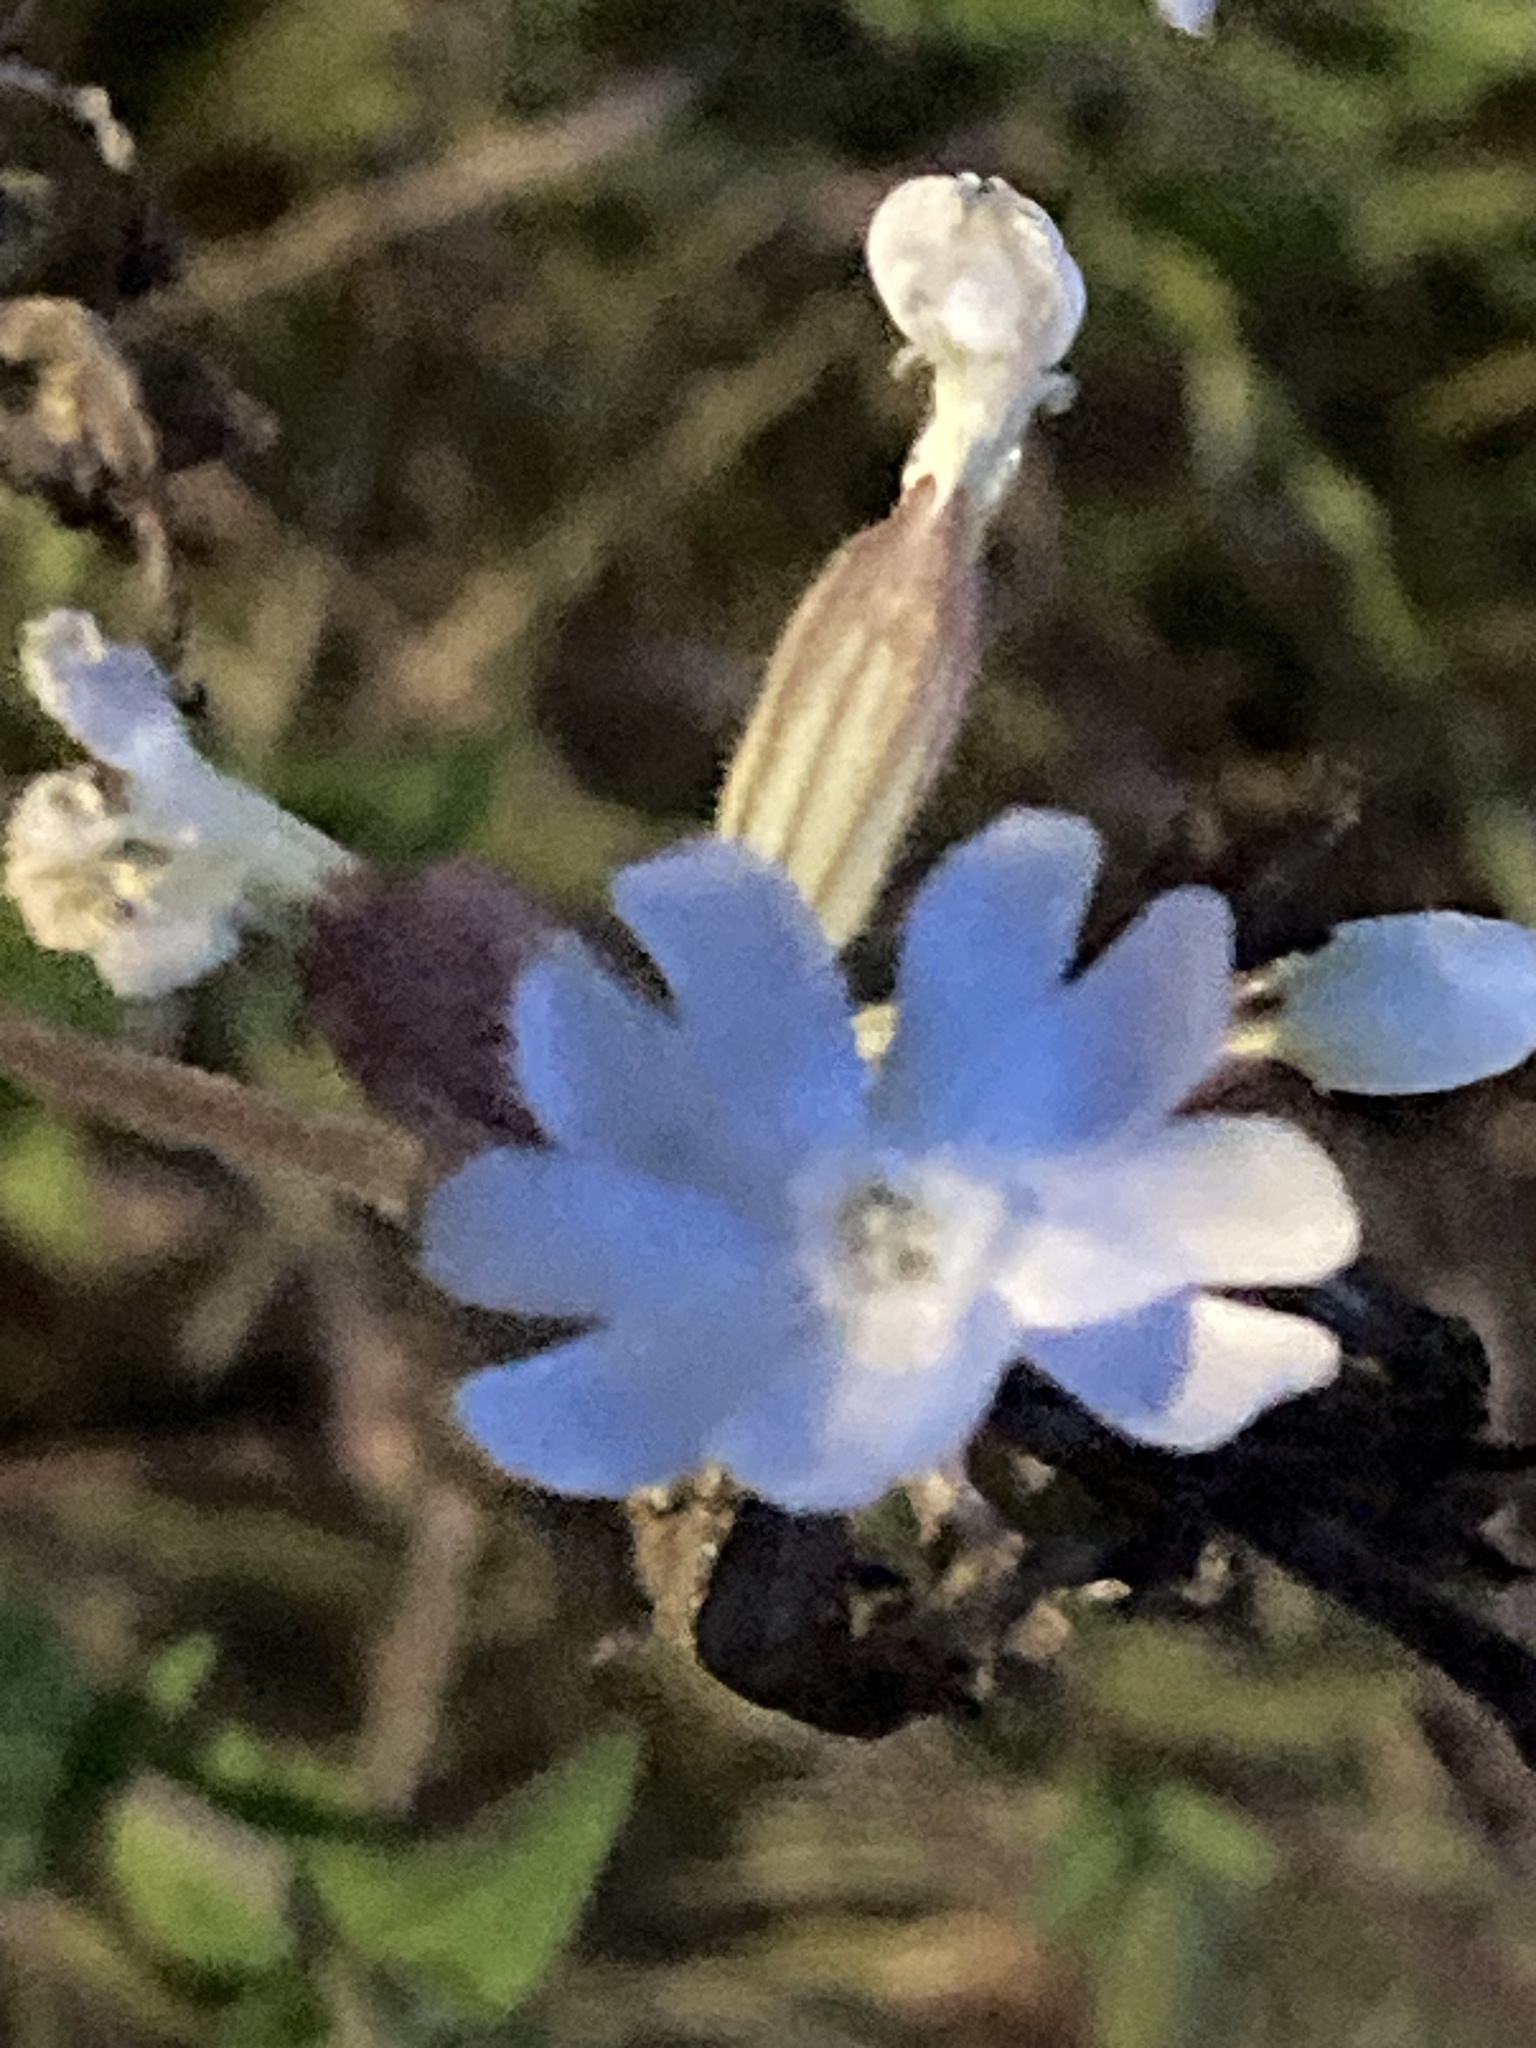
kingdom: Plantae
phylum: Tracheophyta
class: Magnoliopsida
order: Caryophyllales
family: Caryophyllaceae
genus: Silene
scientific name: Silene latifolia
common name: White campion
